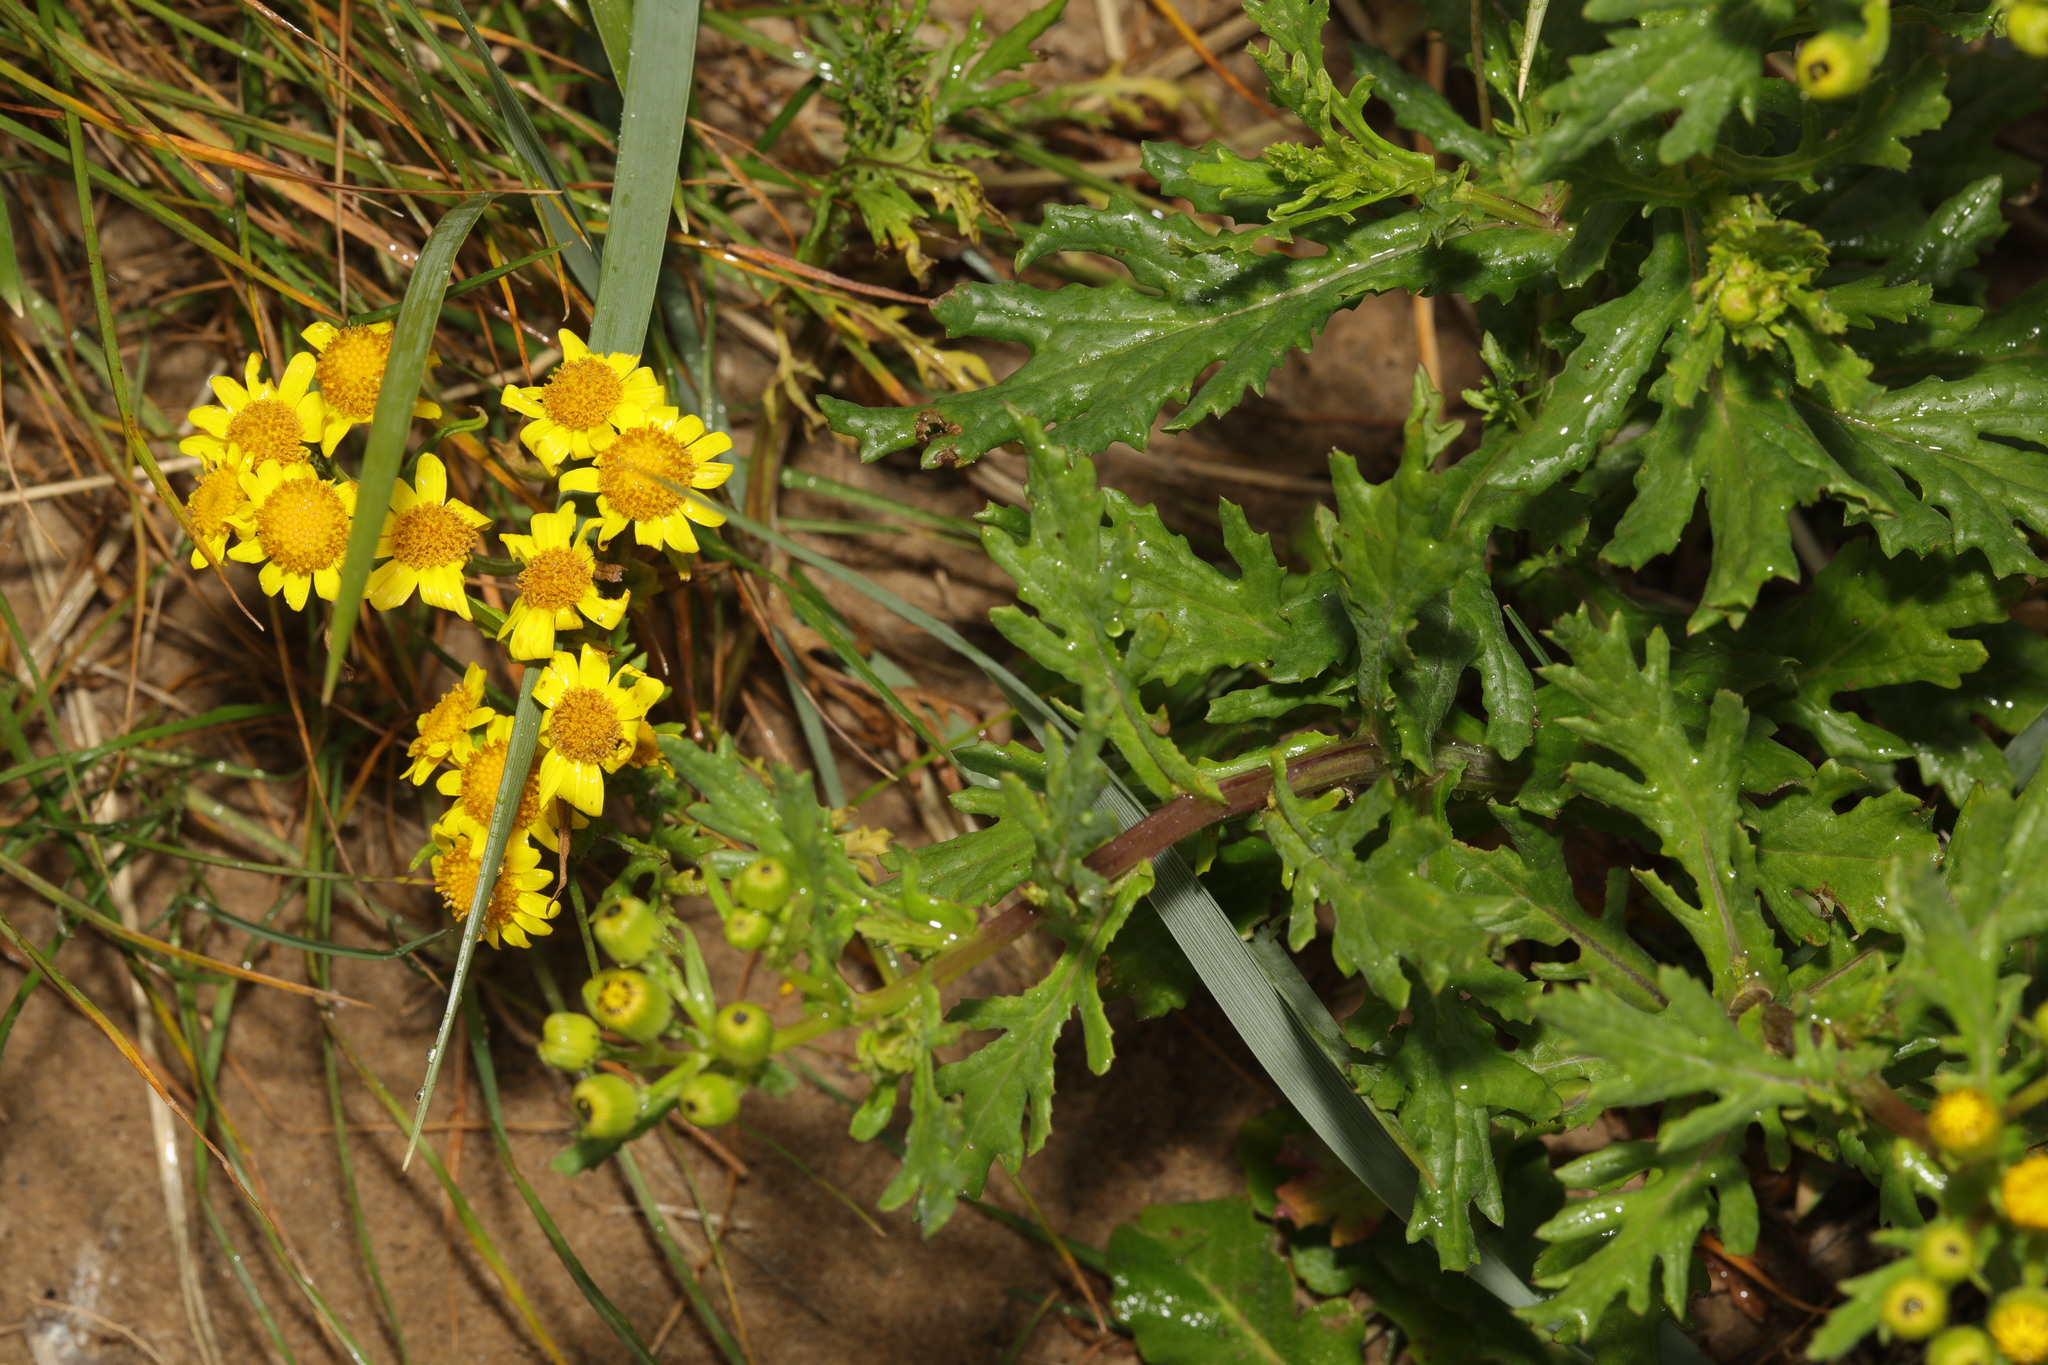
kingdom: Plantae
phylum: Tracheophyta
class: Magnoliopsida
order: Asterales
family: Asteraceae
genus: Senecio
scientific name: Senecio squalidus
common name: Oxford ragwort
